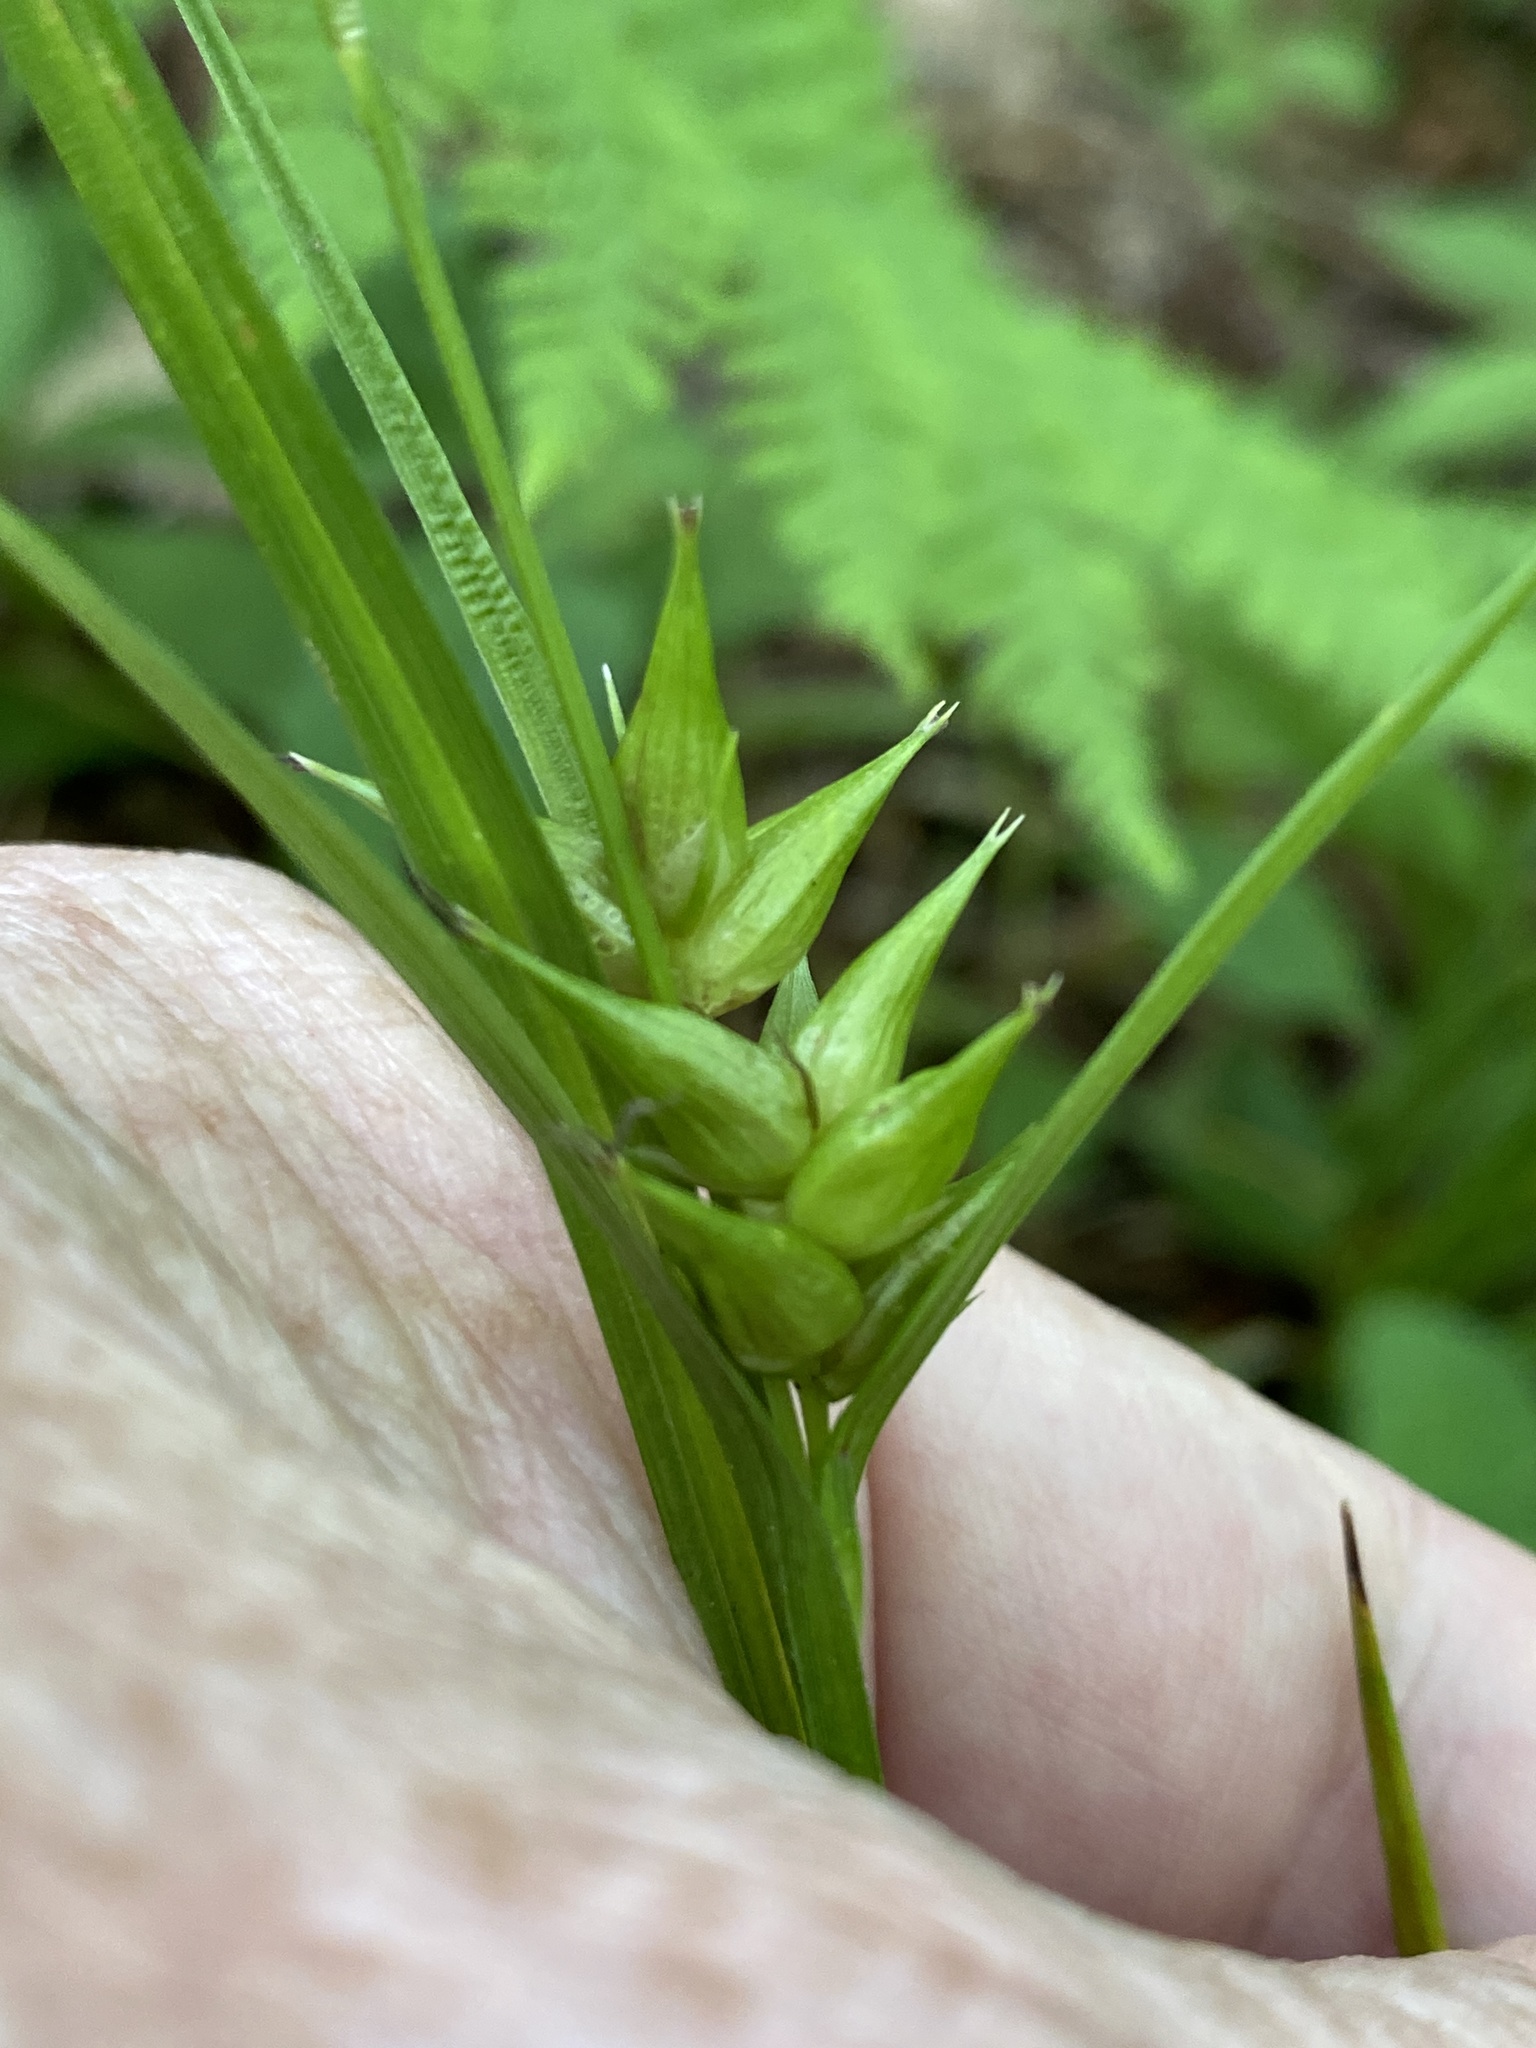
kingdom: Plantae
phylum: Tracheophyta
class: Liliopsida
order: Poales
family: Cyperaceae
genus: Carex
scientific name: Carex intumescens
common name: Greater bladder sedge
